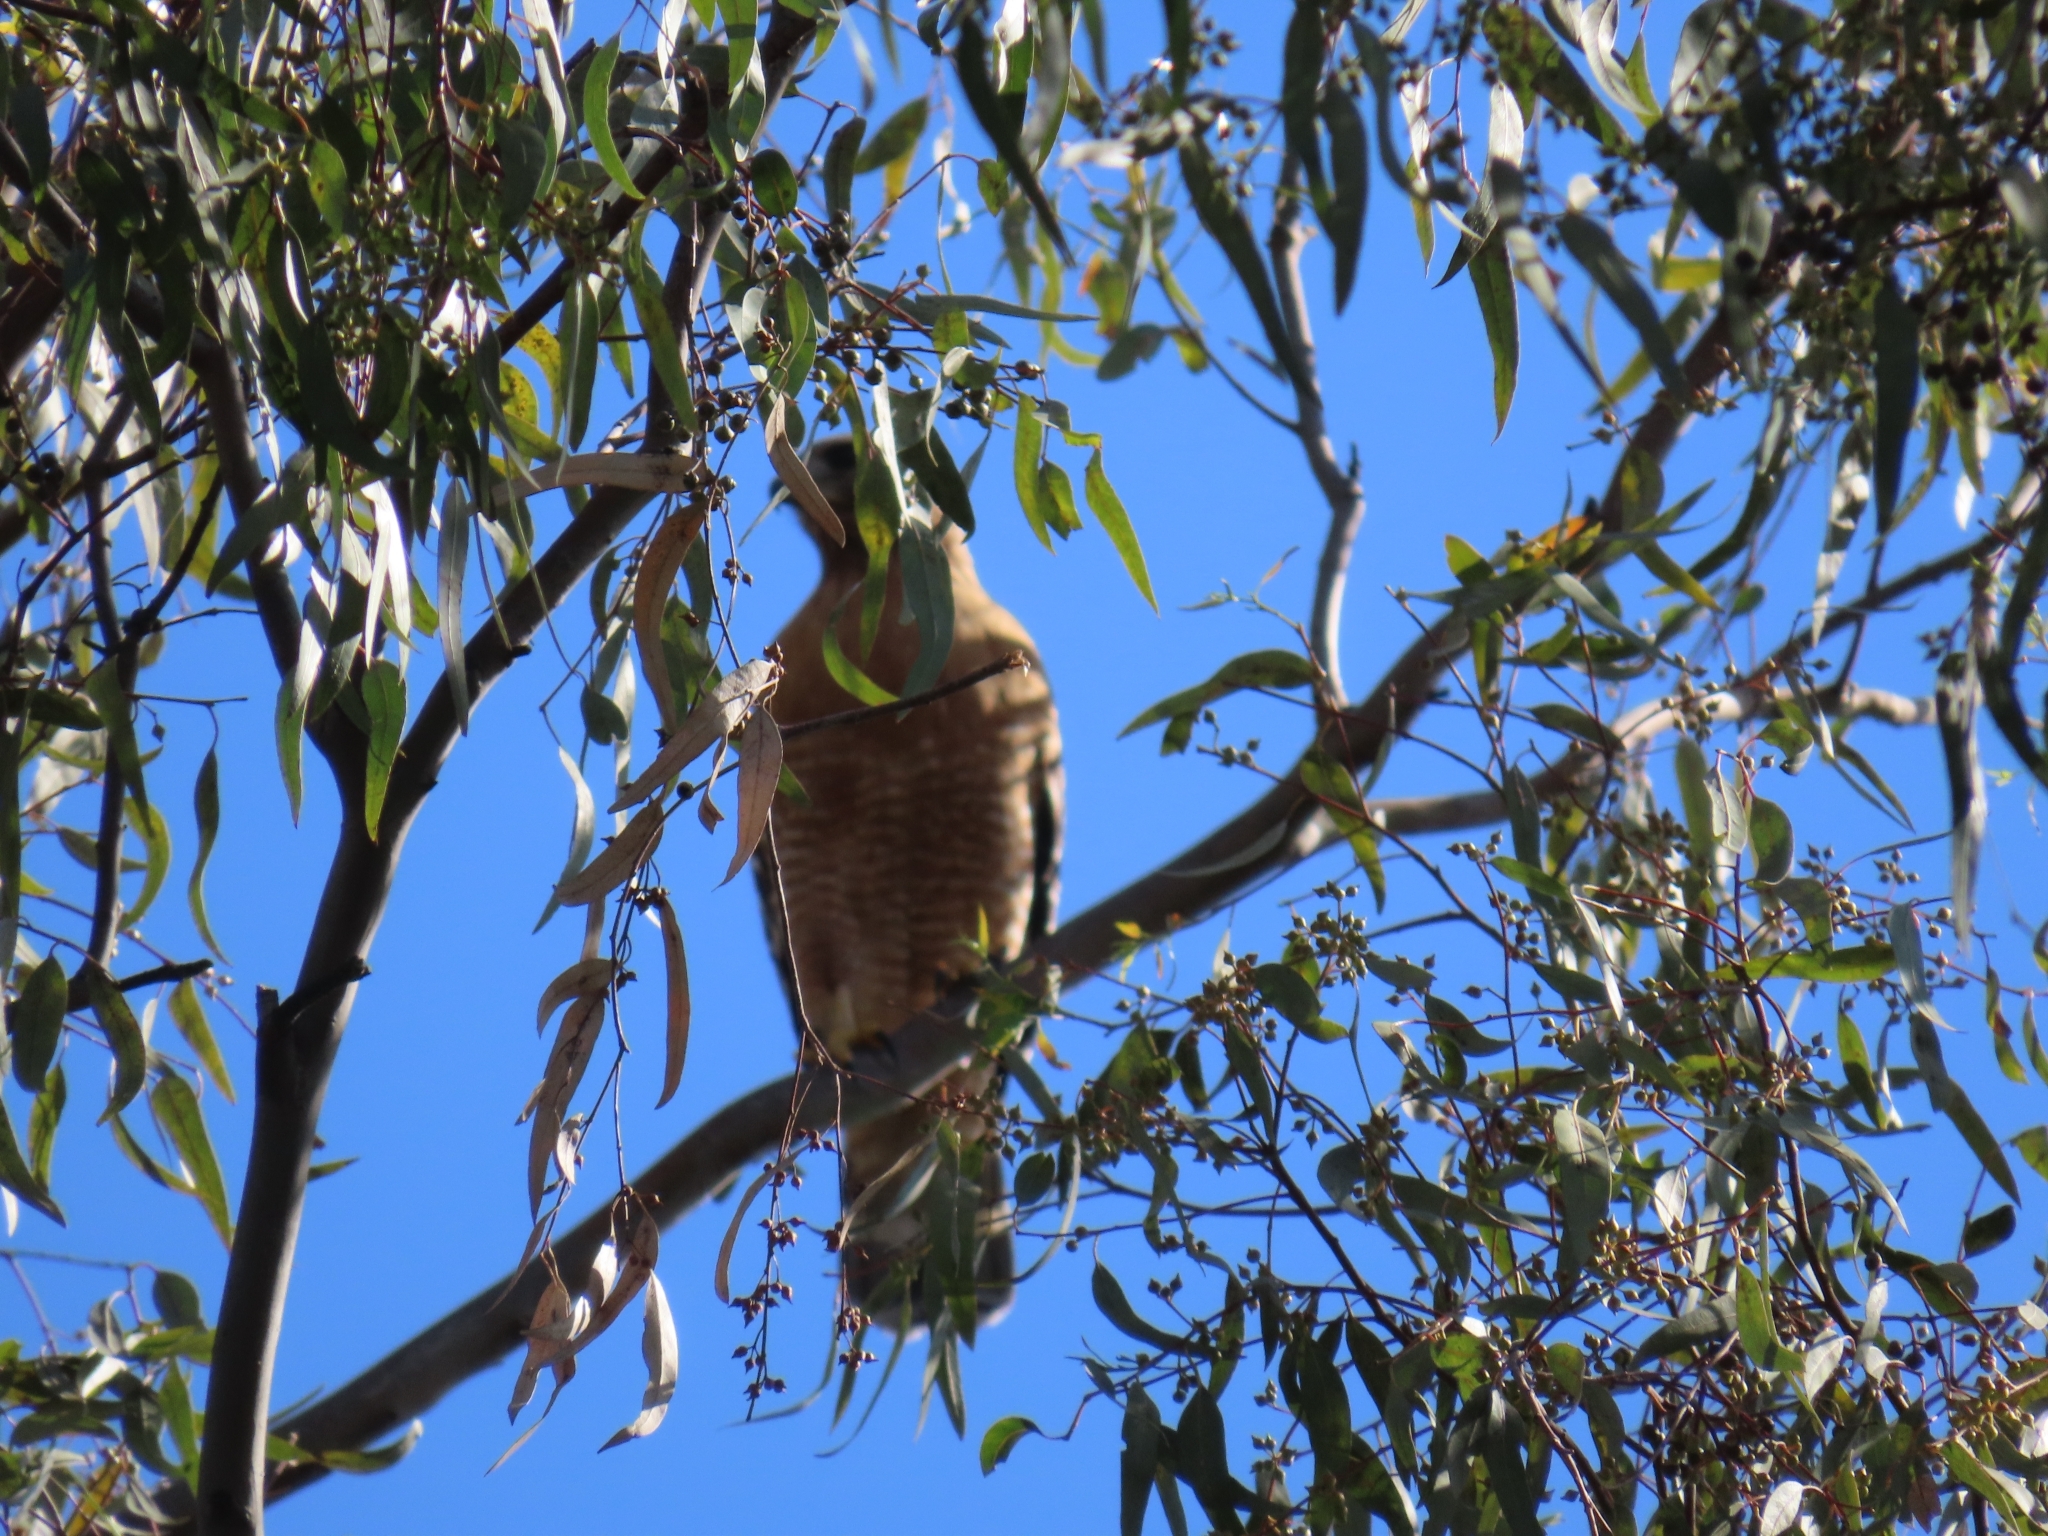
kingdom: Animalia
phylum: Chordata
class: Aves
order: Accipitriformes
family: Accipitridae
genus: Buteo
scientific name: Buteo lineatus
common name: Red-shouldered hawk
